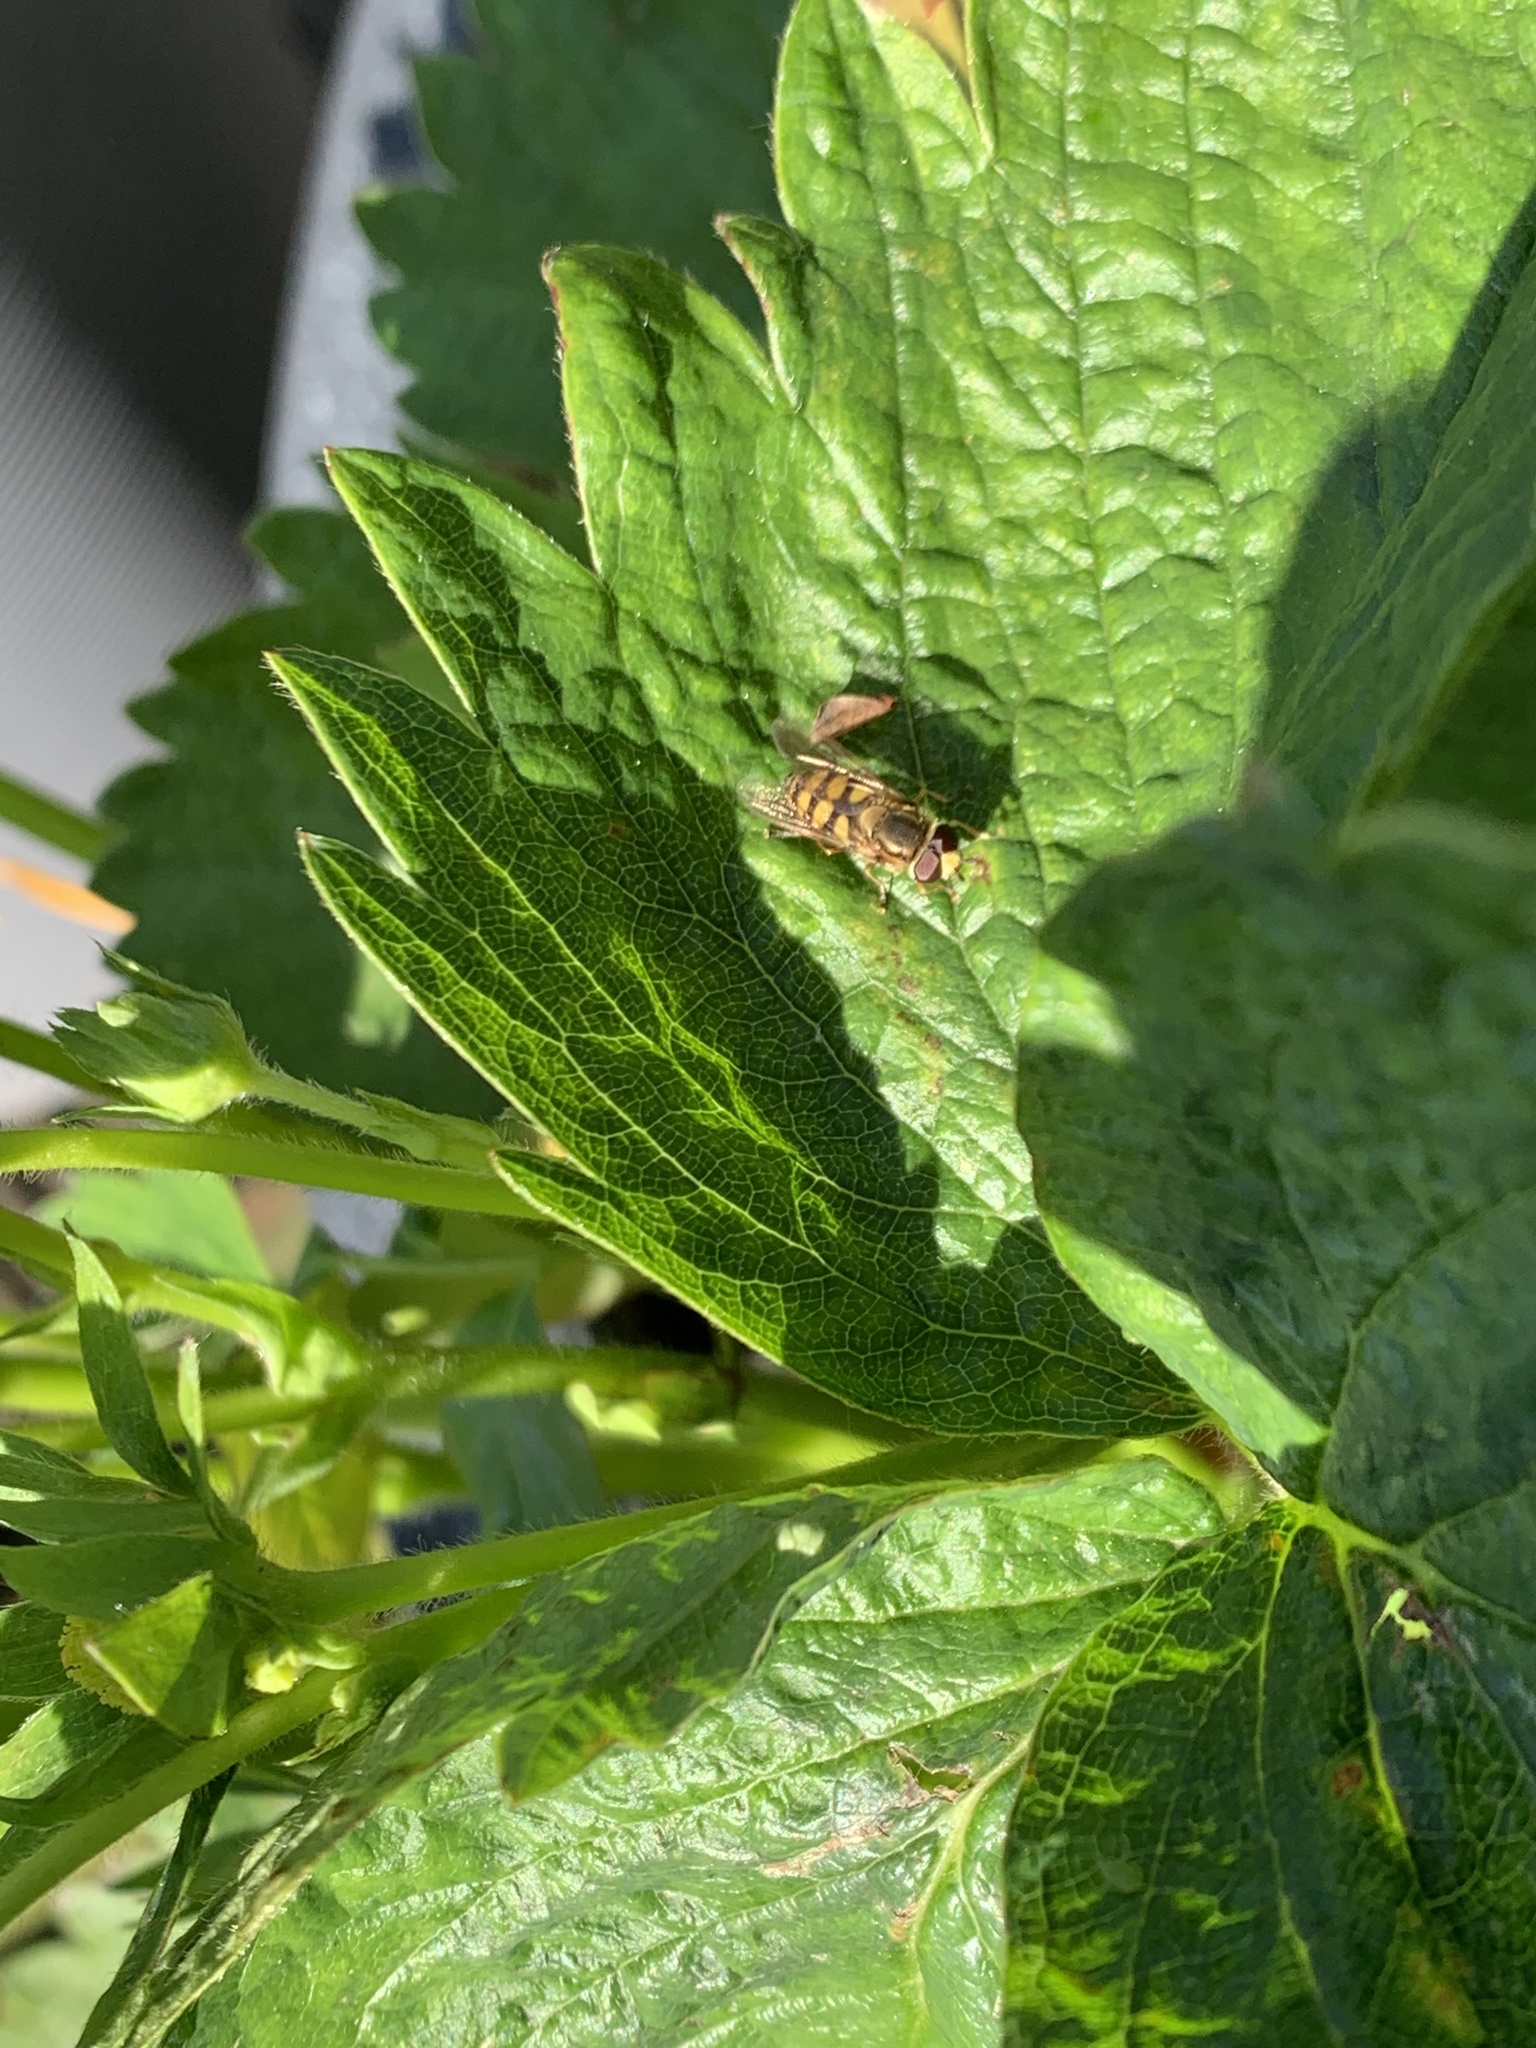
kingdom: Animalia
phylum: Arthropoda
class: Insecta
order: Diptera
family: Syrphidae
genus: Eupeodes
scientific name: Eupeodes corollae
